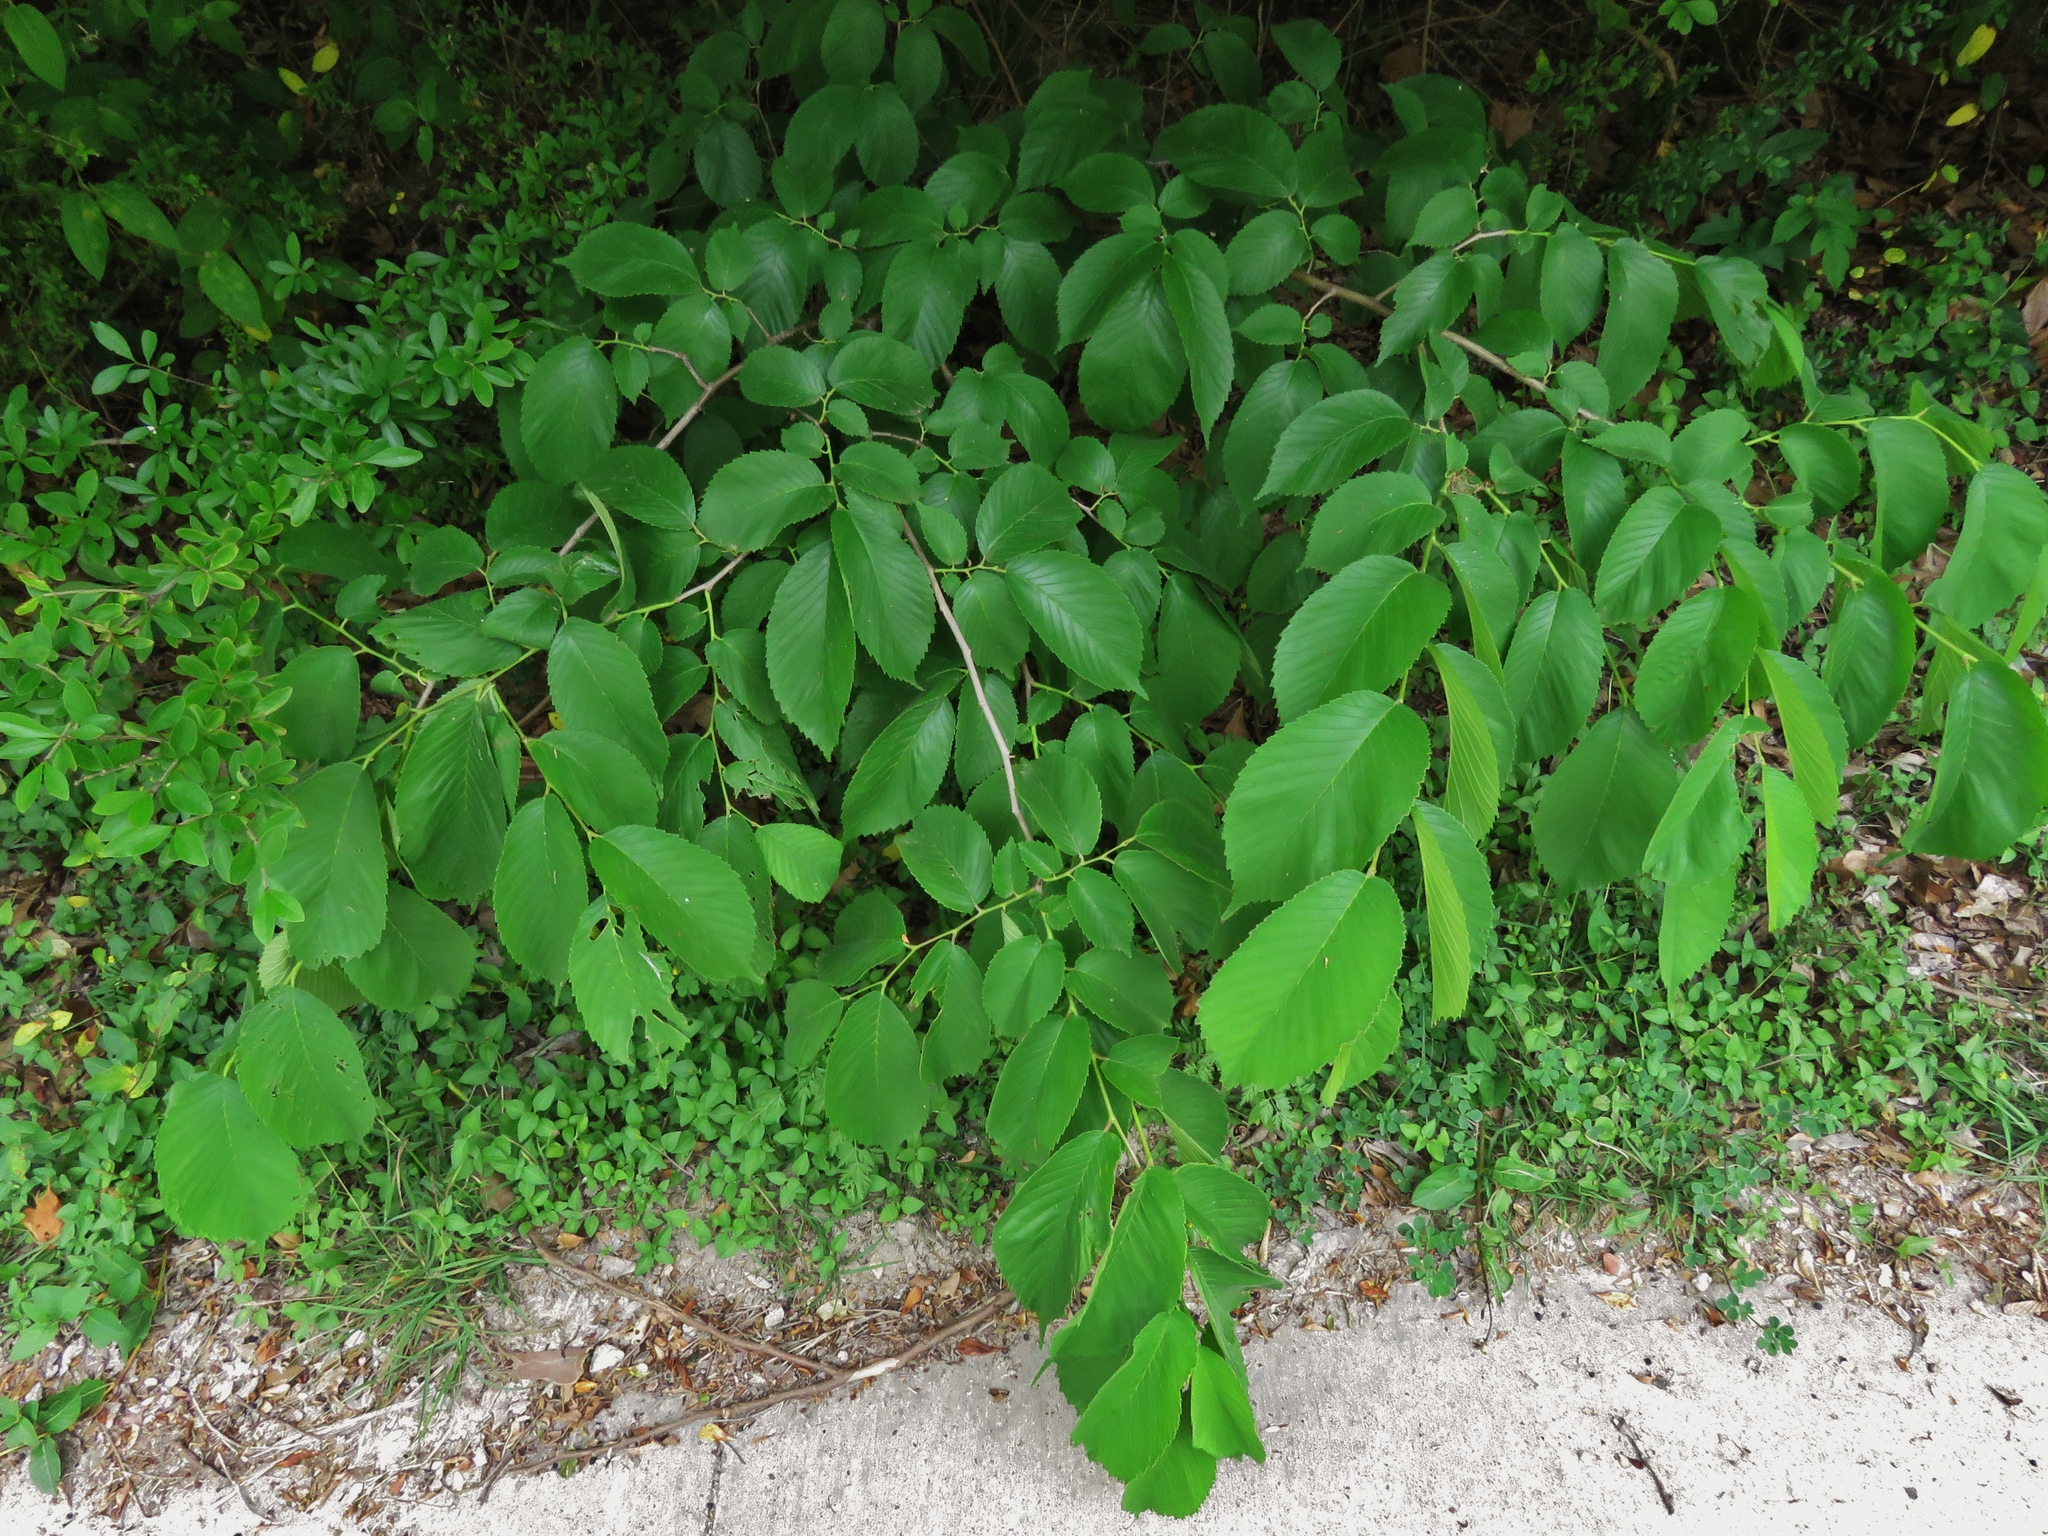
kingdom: Plantae
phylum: Tracheophyta
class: Magnoliopsida
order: Rosales
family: Ulmaceae
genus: Ulmus
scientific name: Ulmus americana
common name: American elm
